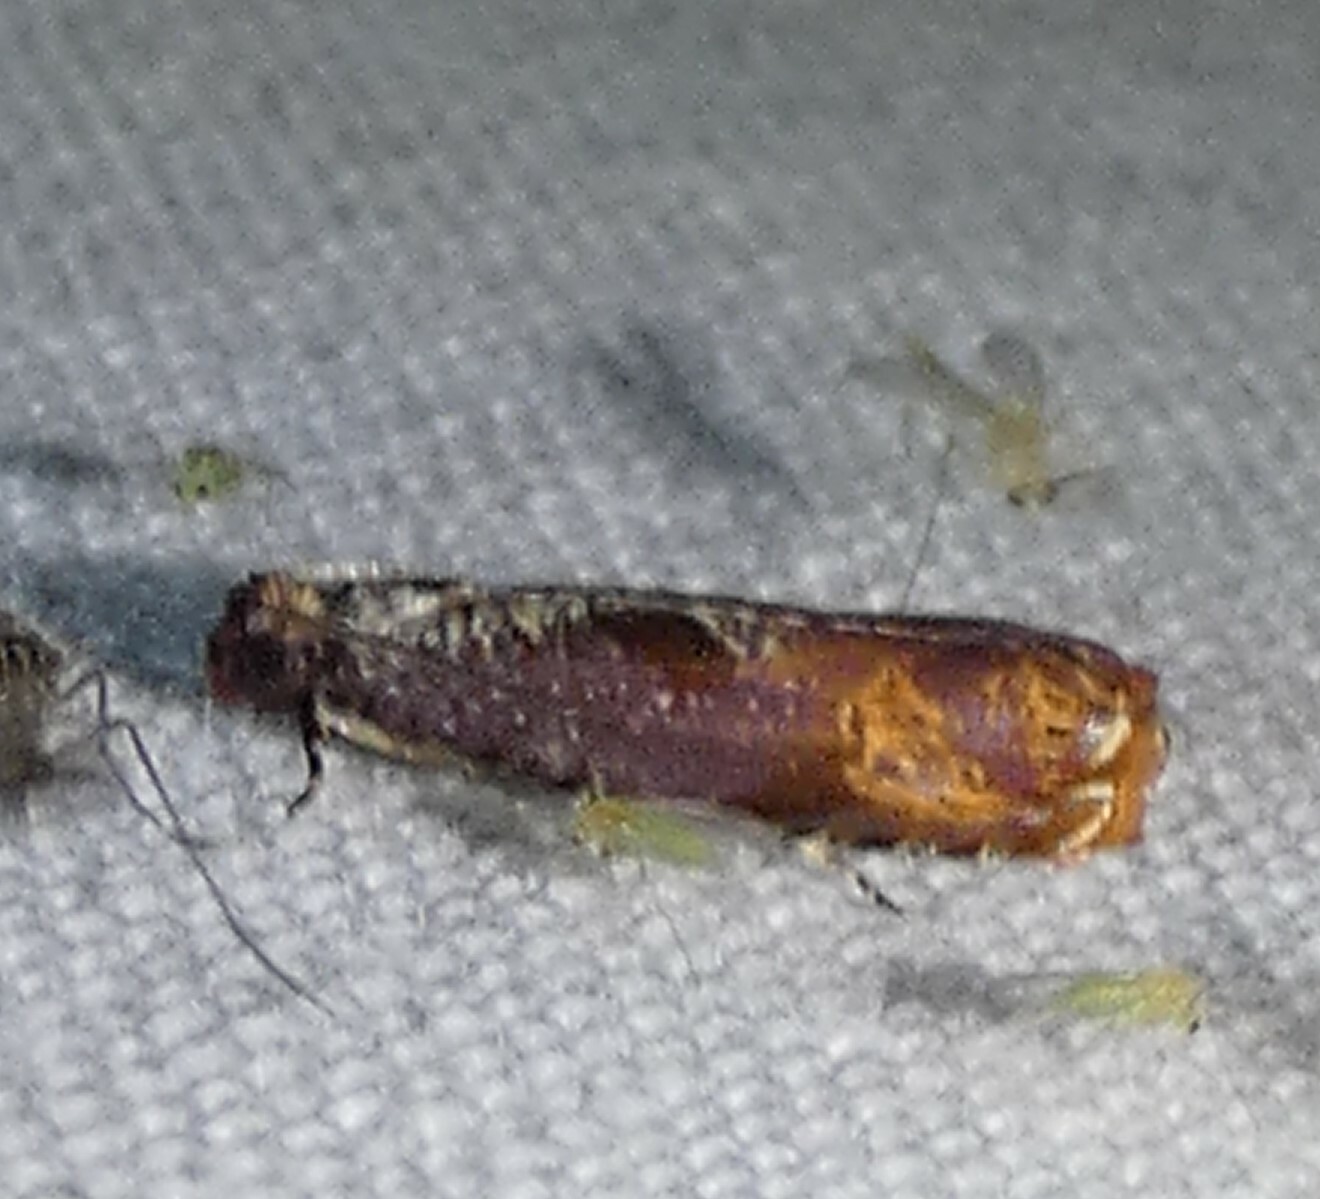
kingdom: Animalia
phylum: Arthropoda
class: Insecta
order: Lepidoptera
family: Tortricidae
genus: Episimus
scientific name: Episimus tyrius
